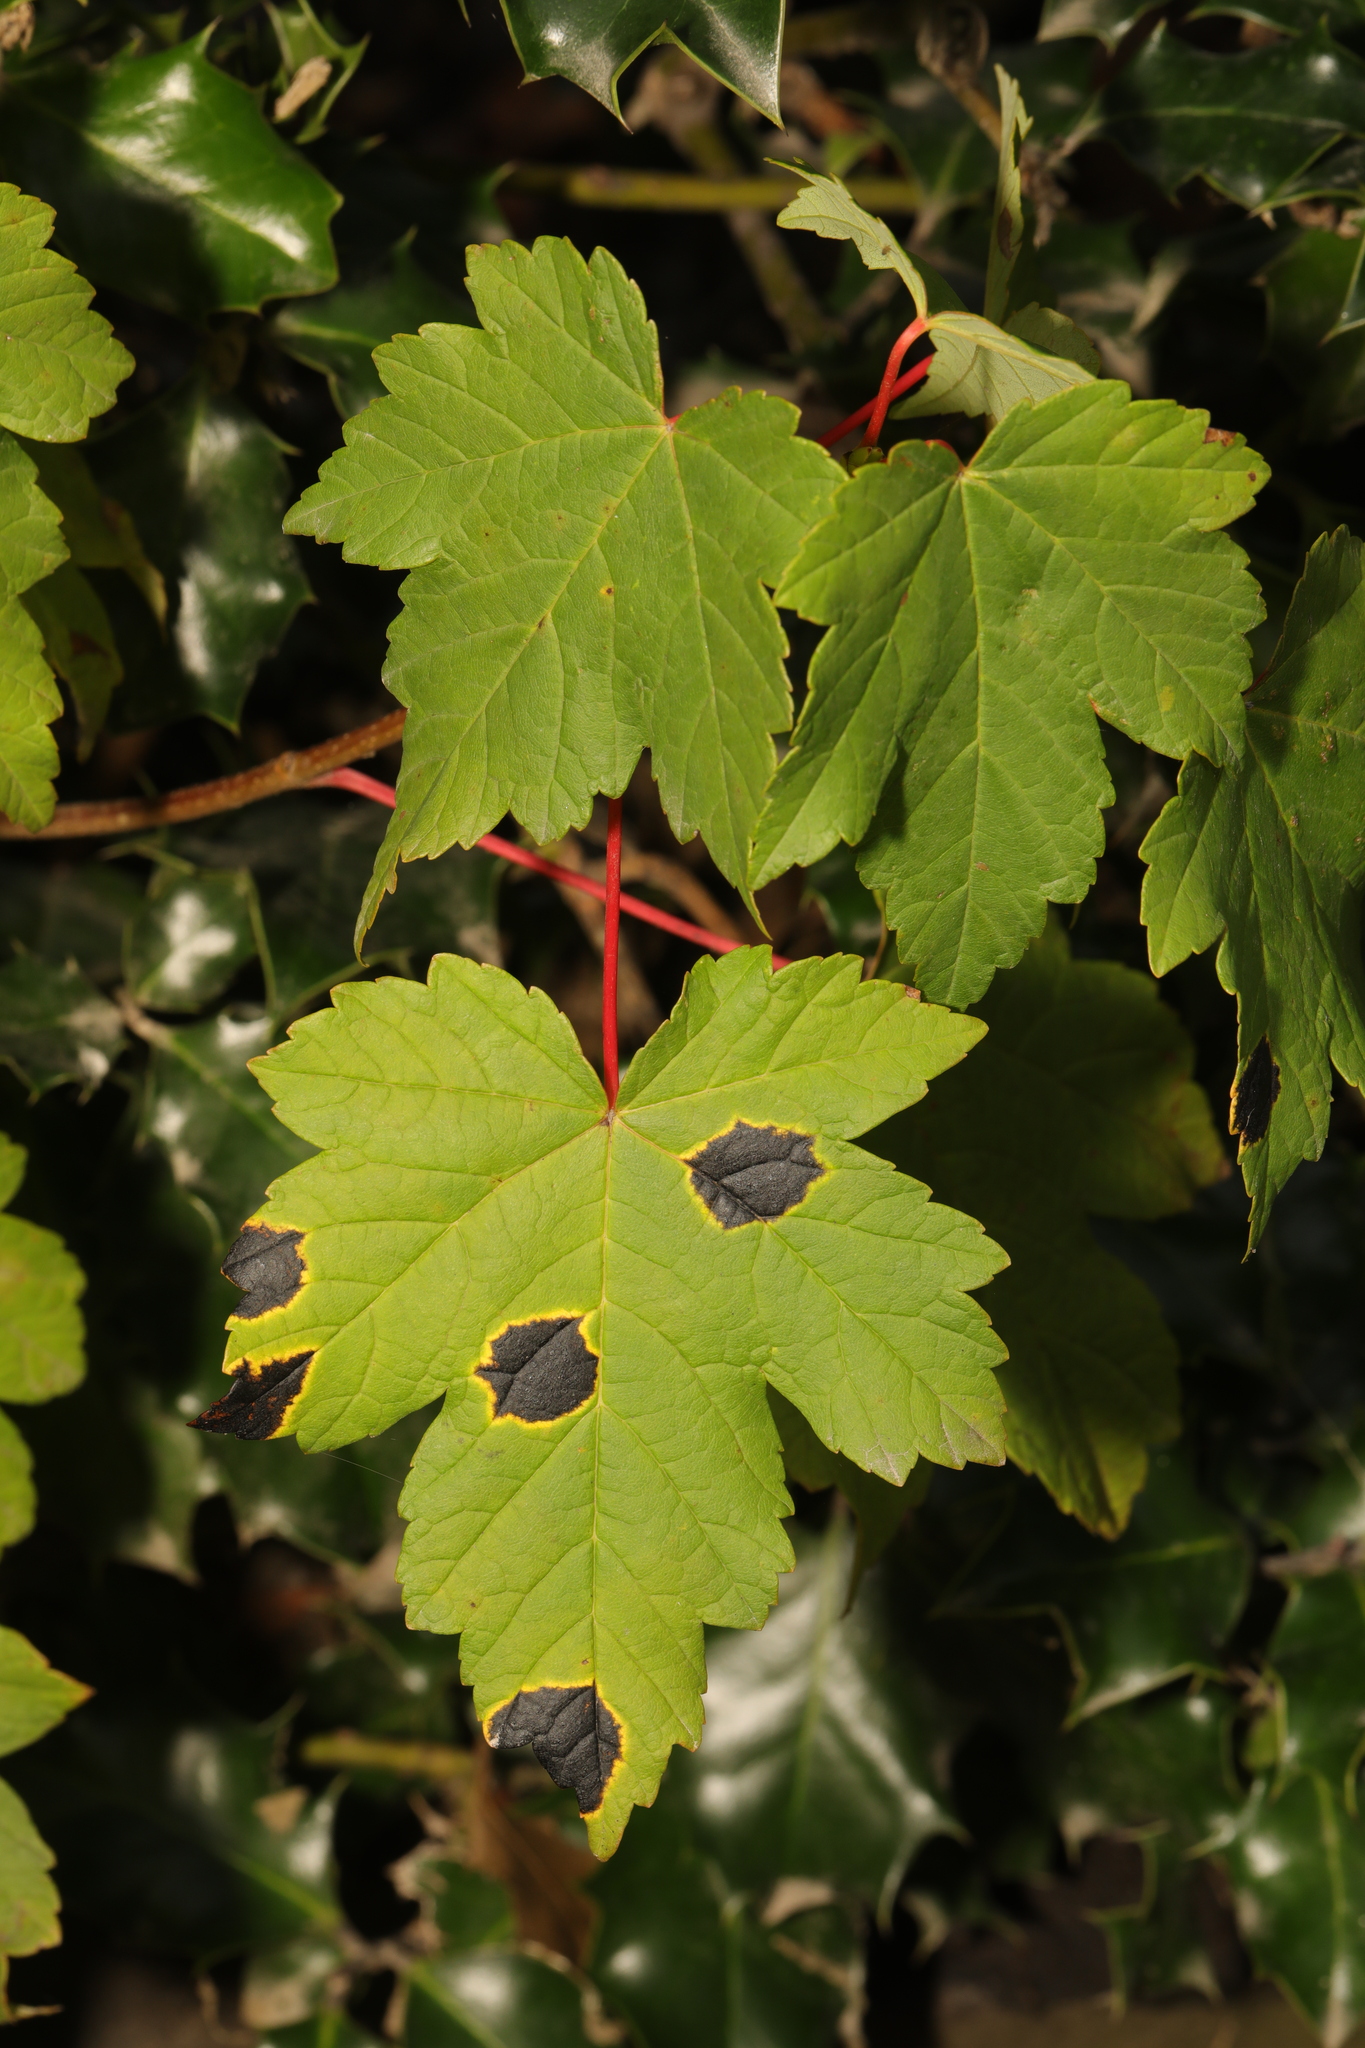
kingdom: Plantae
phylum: Tracheophyta
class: Magnoliopsida
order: Sapindales
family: Sapindaceae
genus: Acer
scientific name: Acer pseudoplatanus
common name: Sycamore
